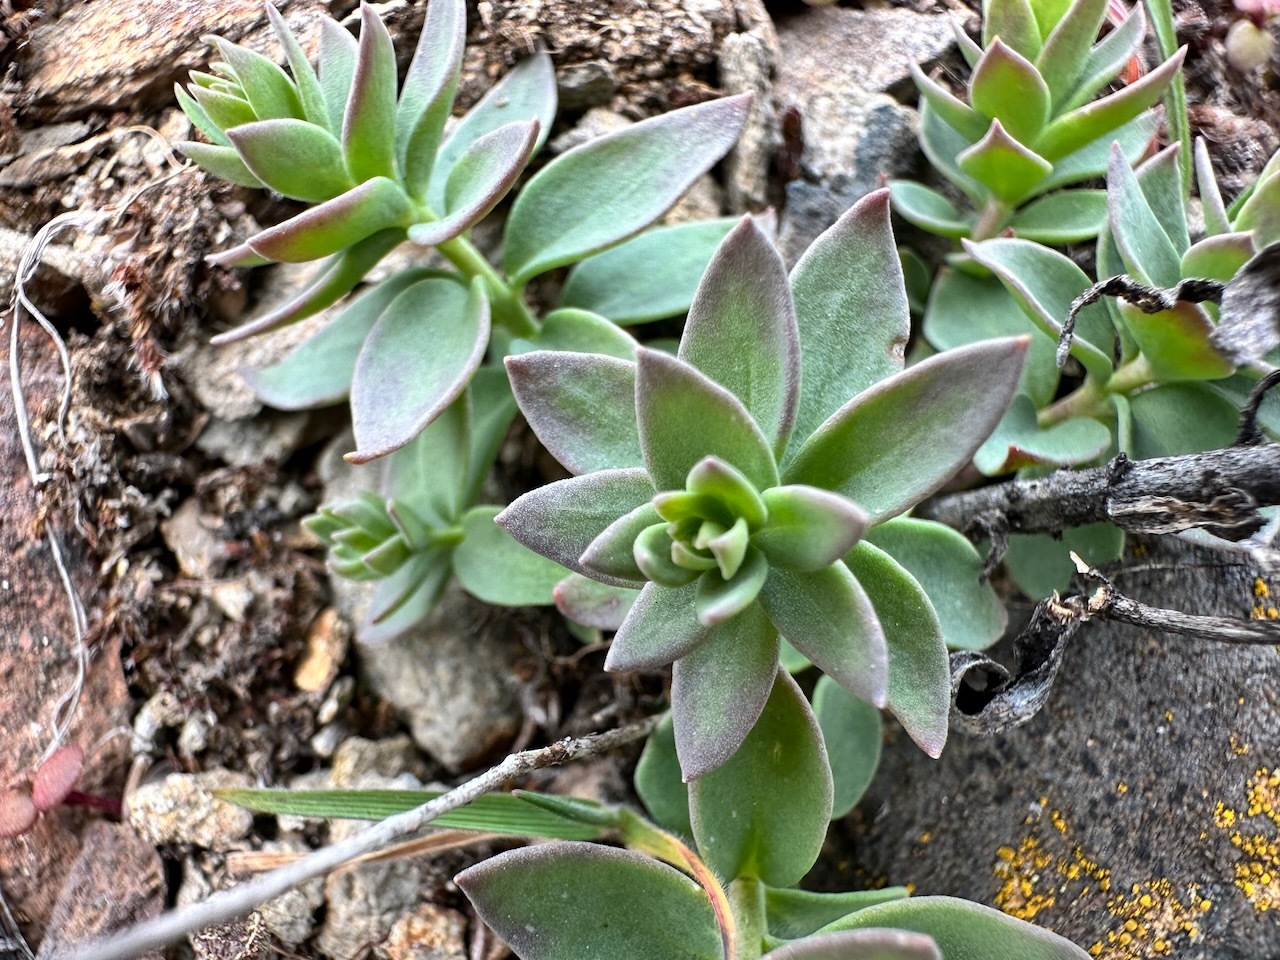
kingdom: Plantae
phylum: Tracheophyta
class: Magnoliopsida
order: Lamiales
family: Plantaginaceae
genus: Linaria
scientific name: Linaria dalmatica
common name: Dalmatian toadflax
